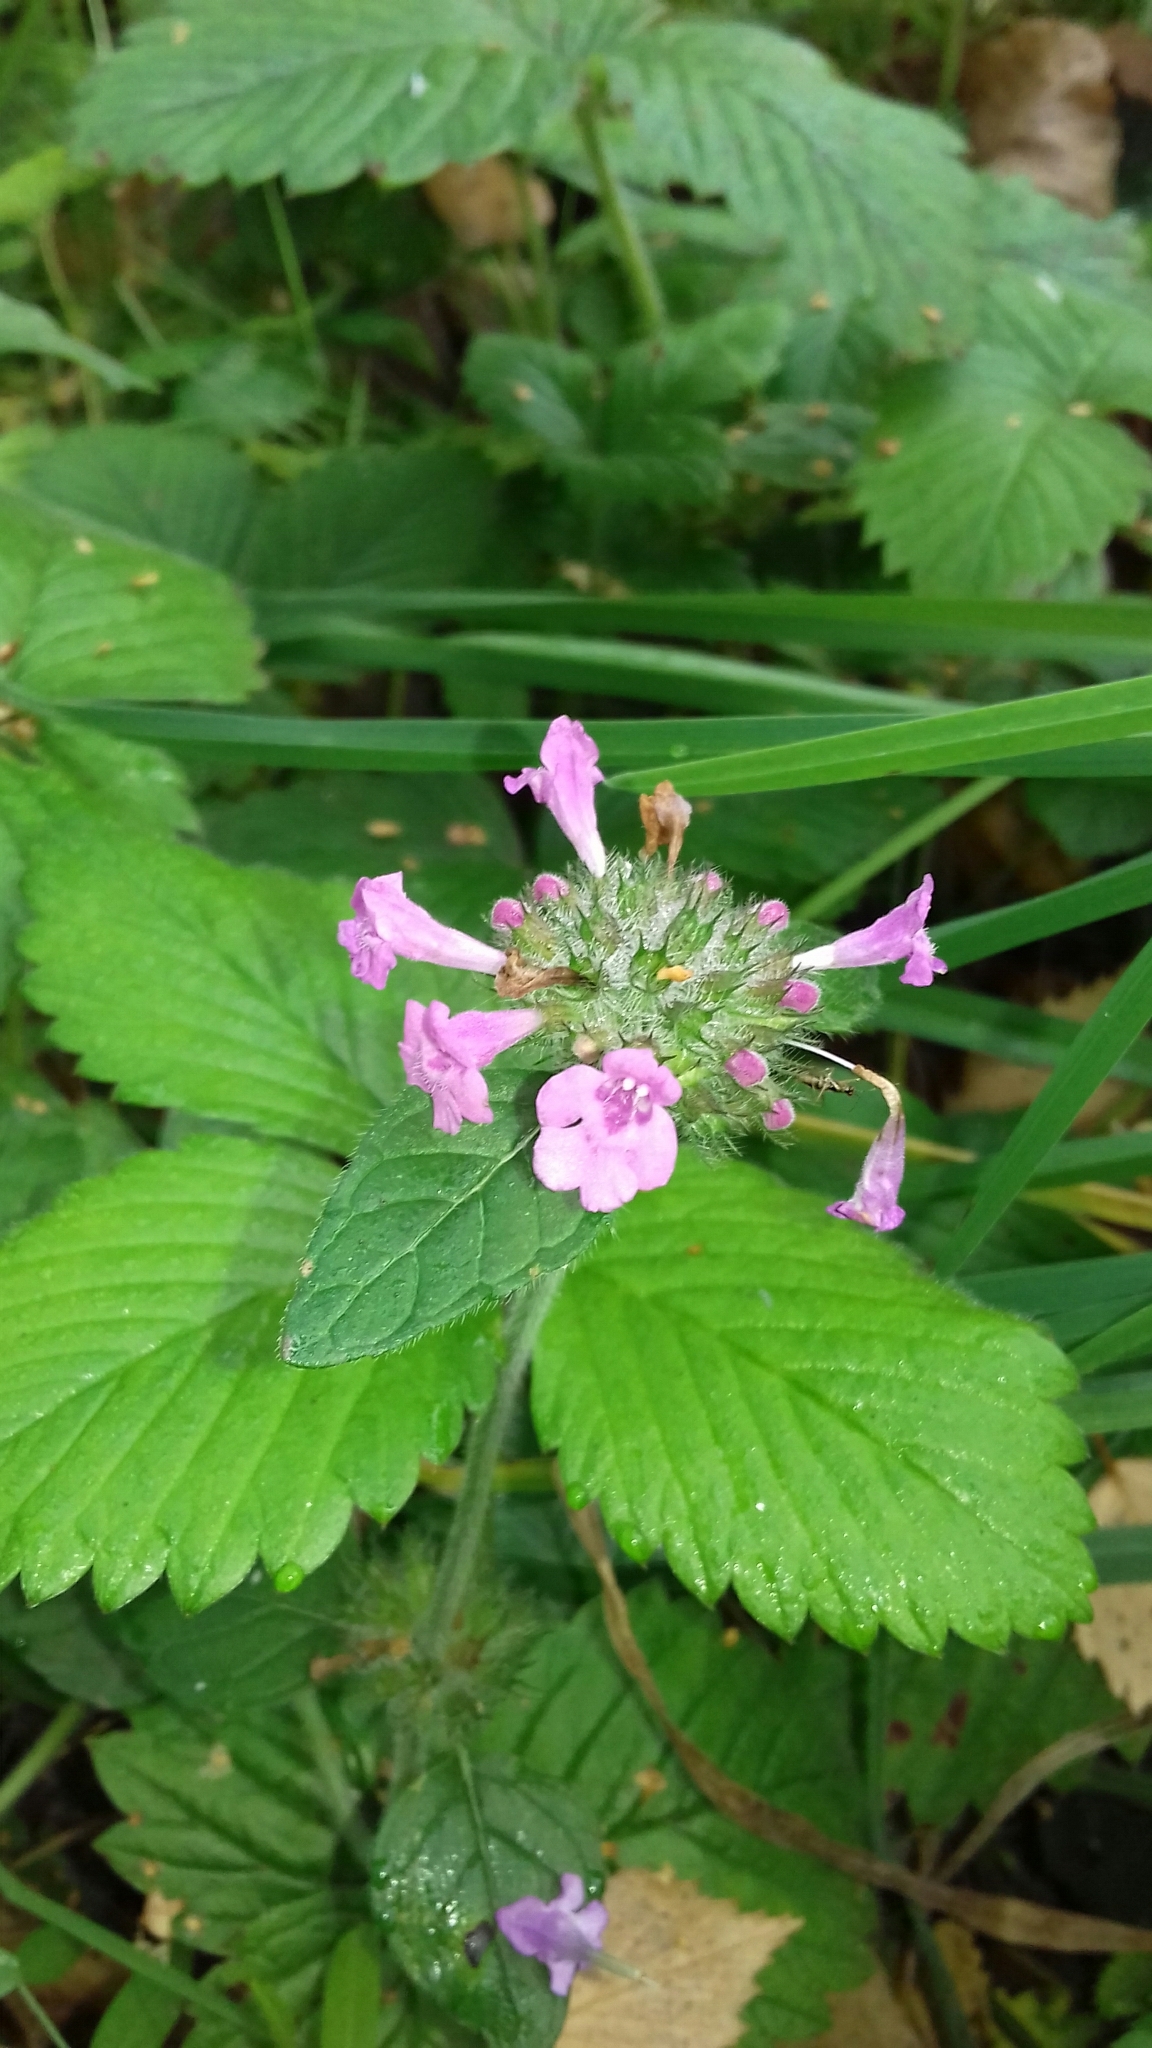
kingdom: Plantae
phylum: Tracheophyta
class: Magnoliopsida
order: Lamiales
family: Lamiaceae
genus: Clinopodium
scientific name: Clinopodium vulgare
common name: Wild basil
